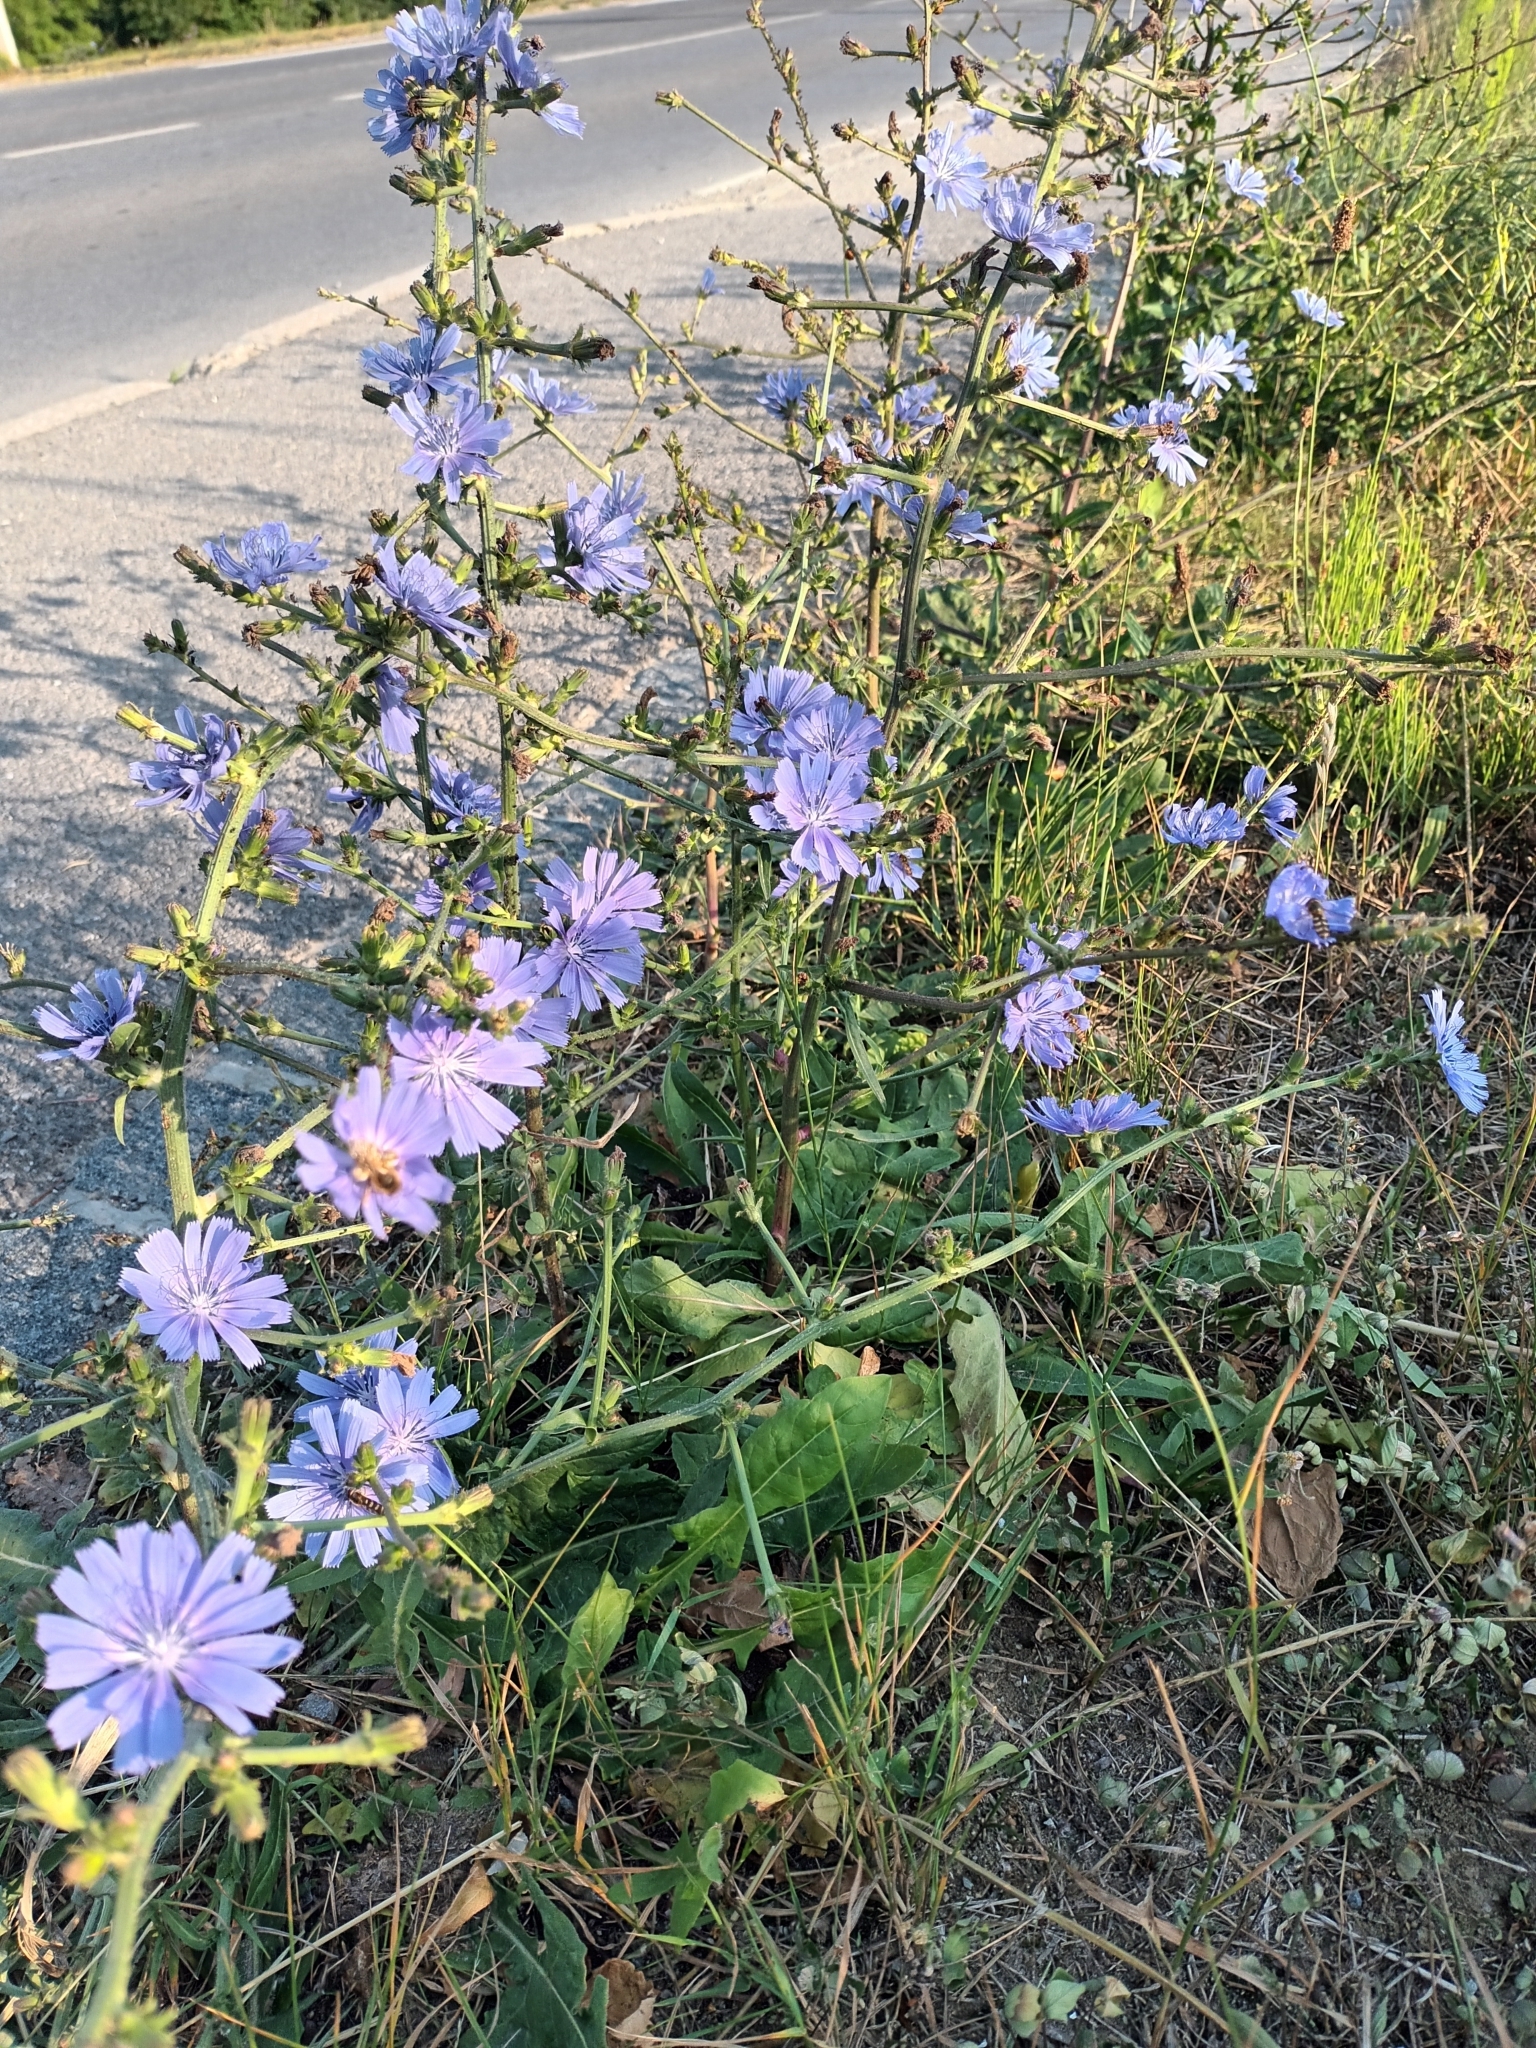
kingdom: Plantae
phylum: Tracheophyta
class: Magnoliopsida
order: Asterales
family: Asteraceae
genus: Cichorium
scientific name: Cichorium intybus
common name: Chicory
